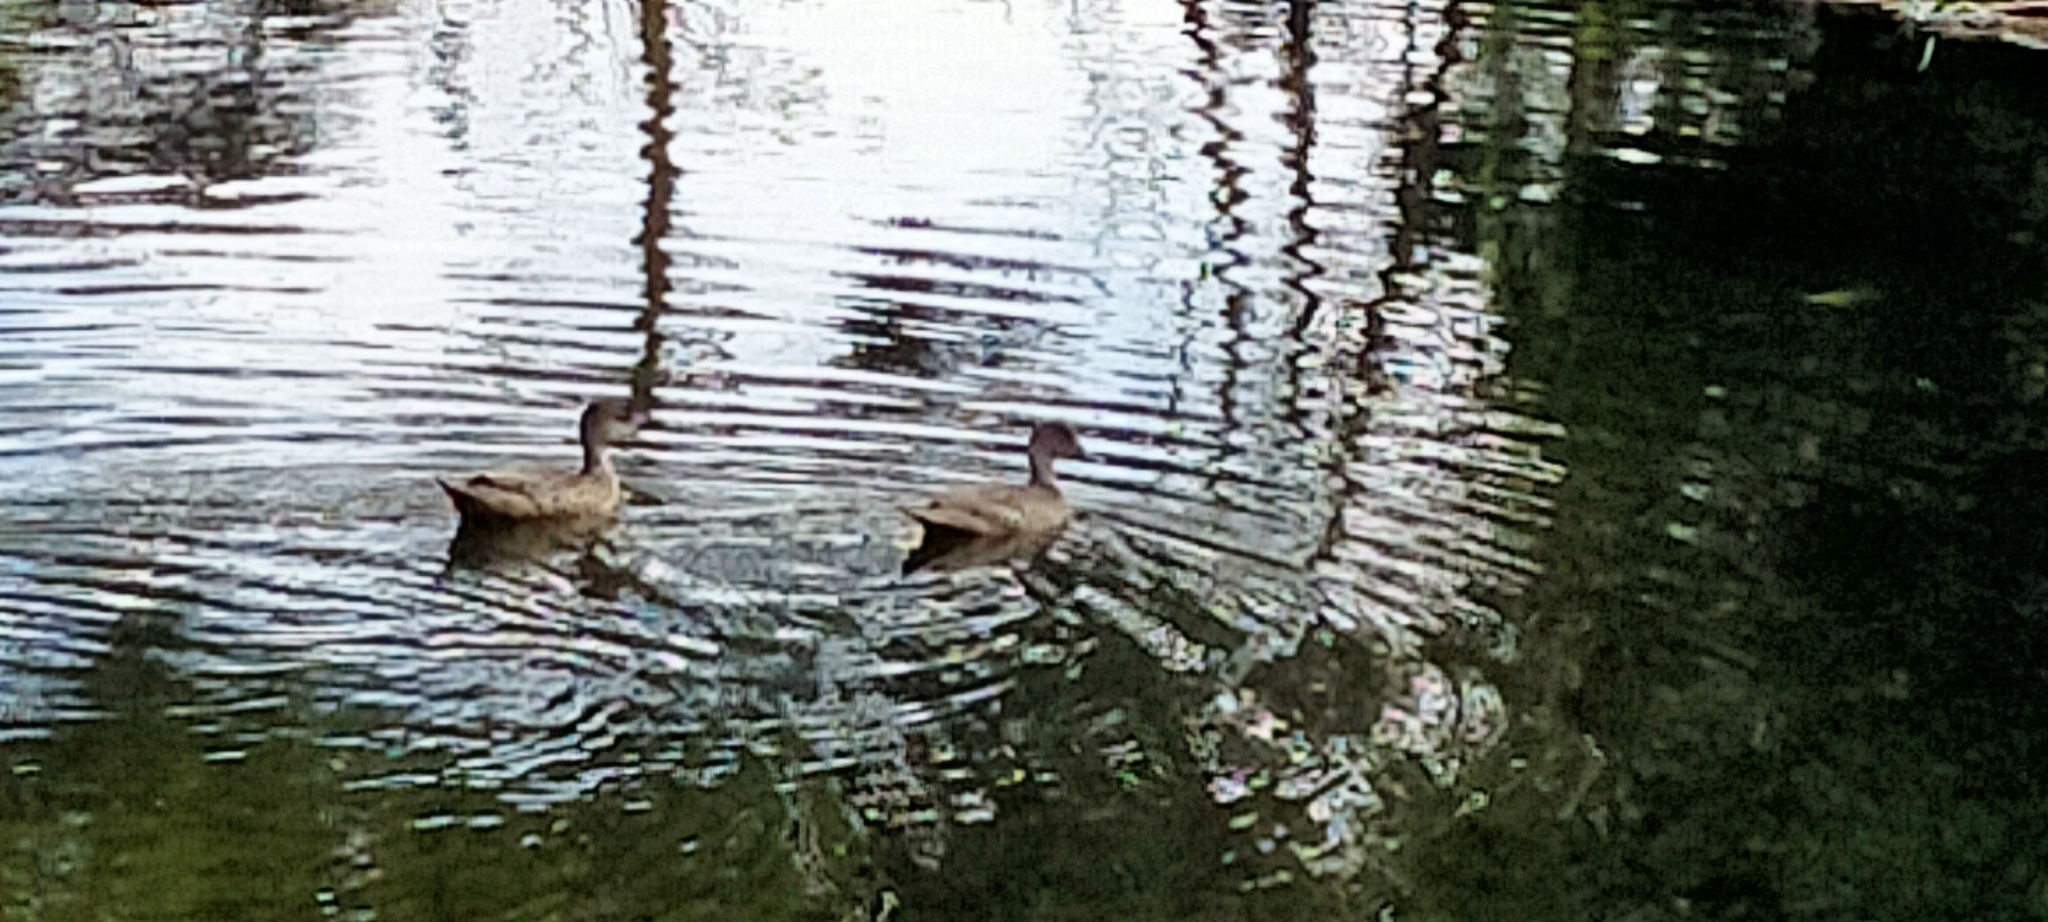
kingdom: Animalia
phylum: Chordata
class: Aves
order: Anseriformes
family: Anatidae
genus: Anas
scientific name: Anas gracilis
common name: Grey teal
